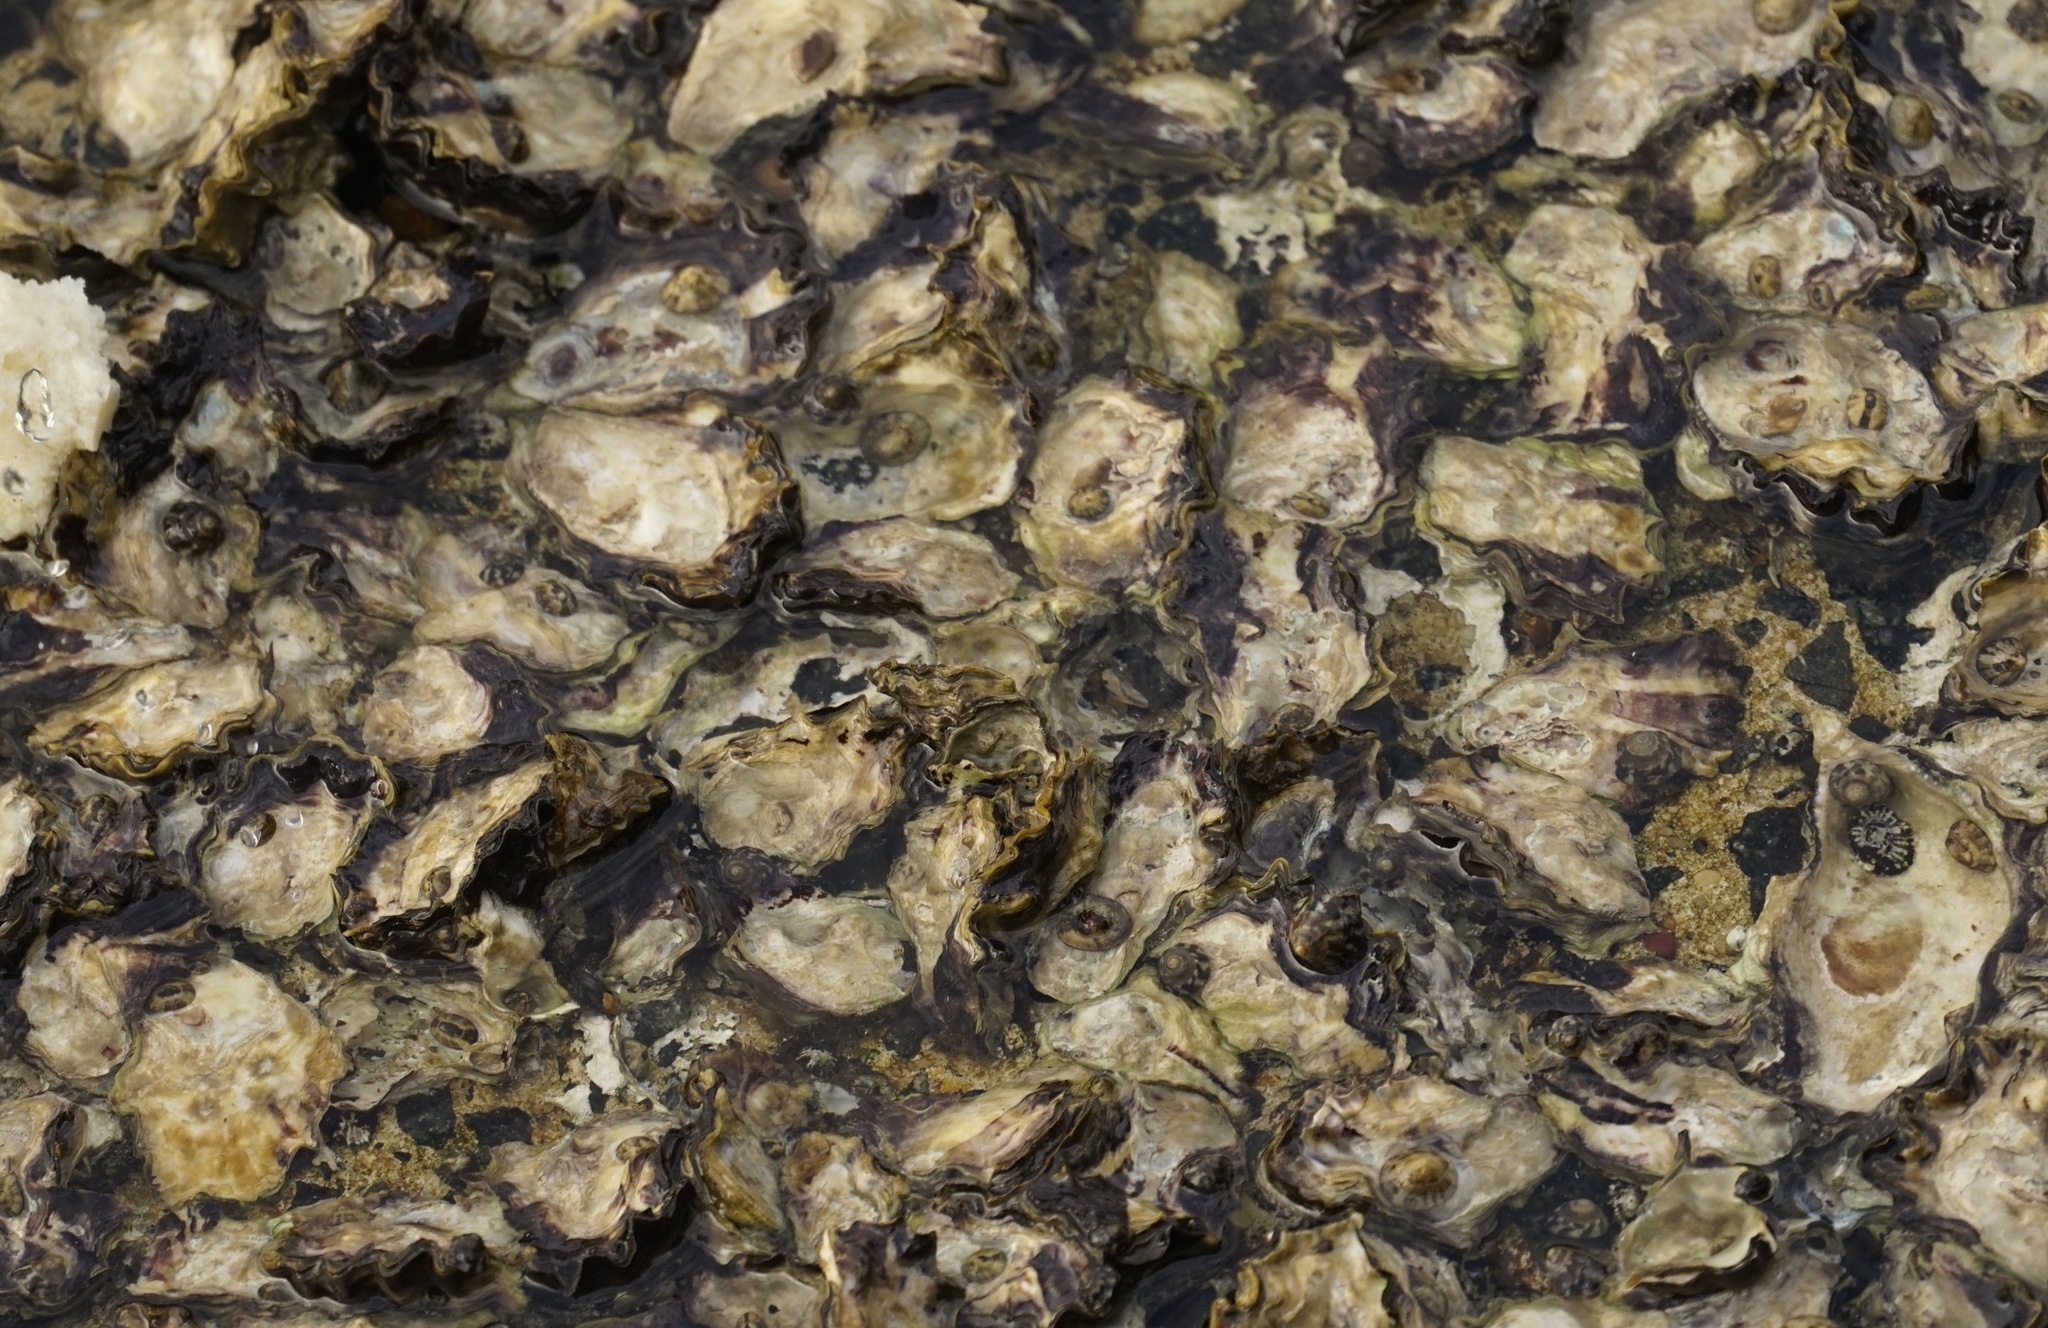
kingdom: Animalia
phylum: Mollusca
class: Bivalvia
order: Ostreida
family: Ostreidae
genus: Saccostrea
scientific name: Saccostrea glomerata
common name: Sydney cupped oyster
